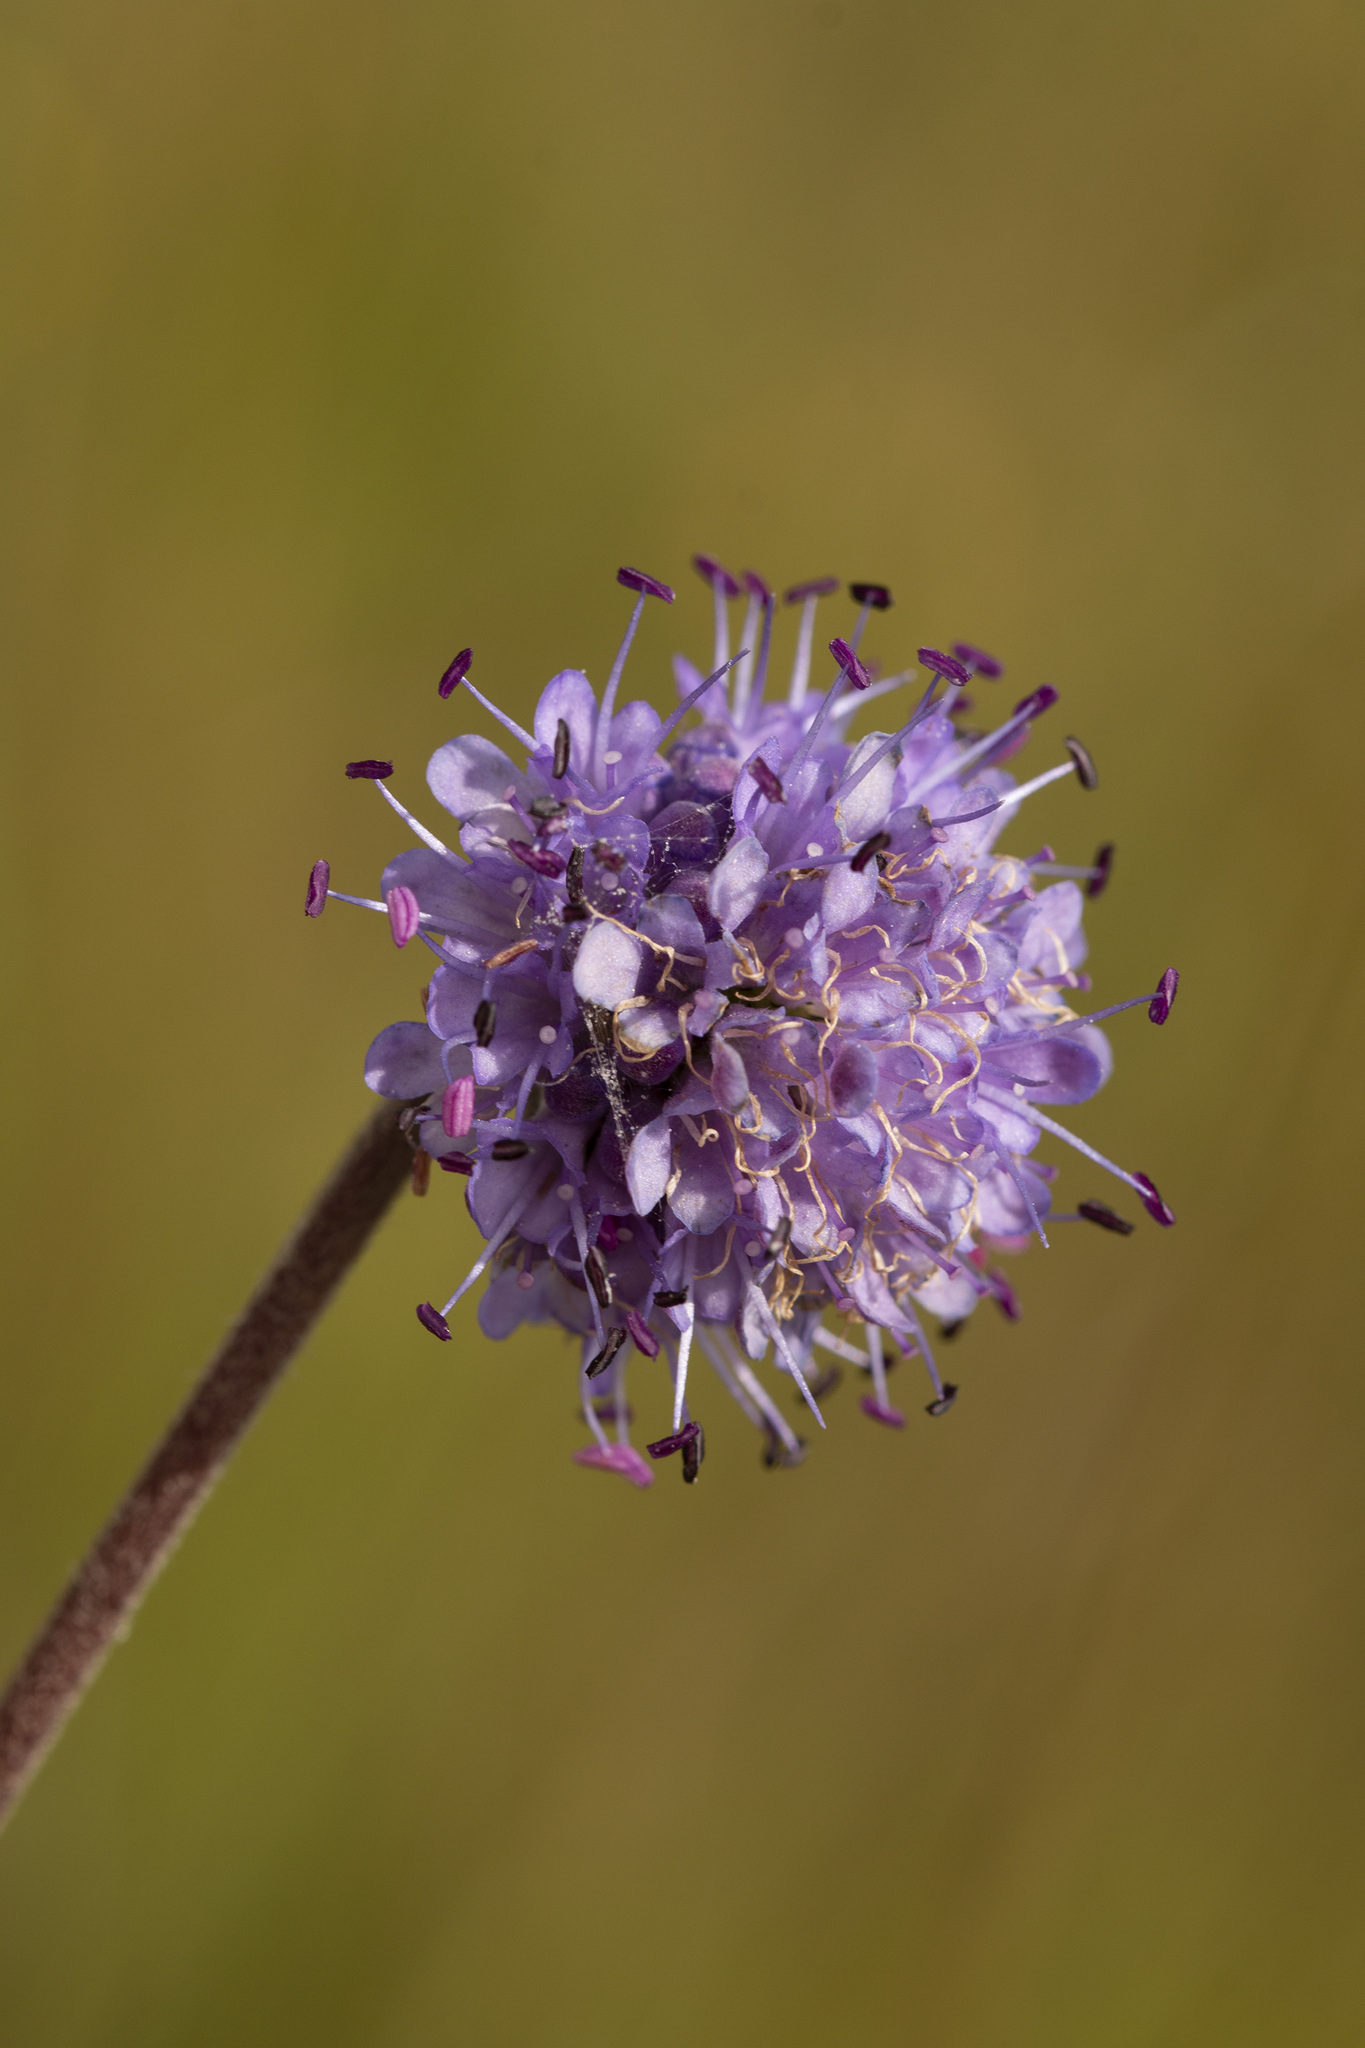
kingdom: Plantae
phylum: Tracheophyta
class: Magnoliopsida
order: Dipsacales
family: Caprifoliaceae
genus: Succisa
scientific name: Succisa pratensis
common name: Devil's-bit
